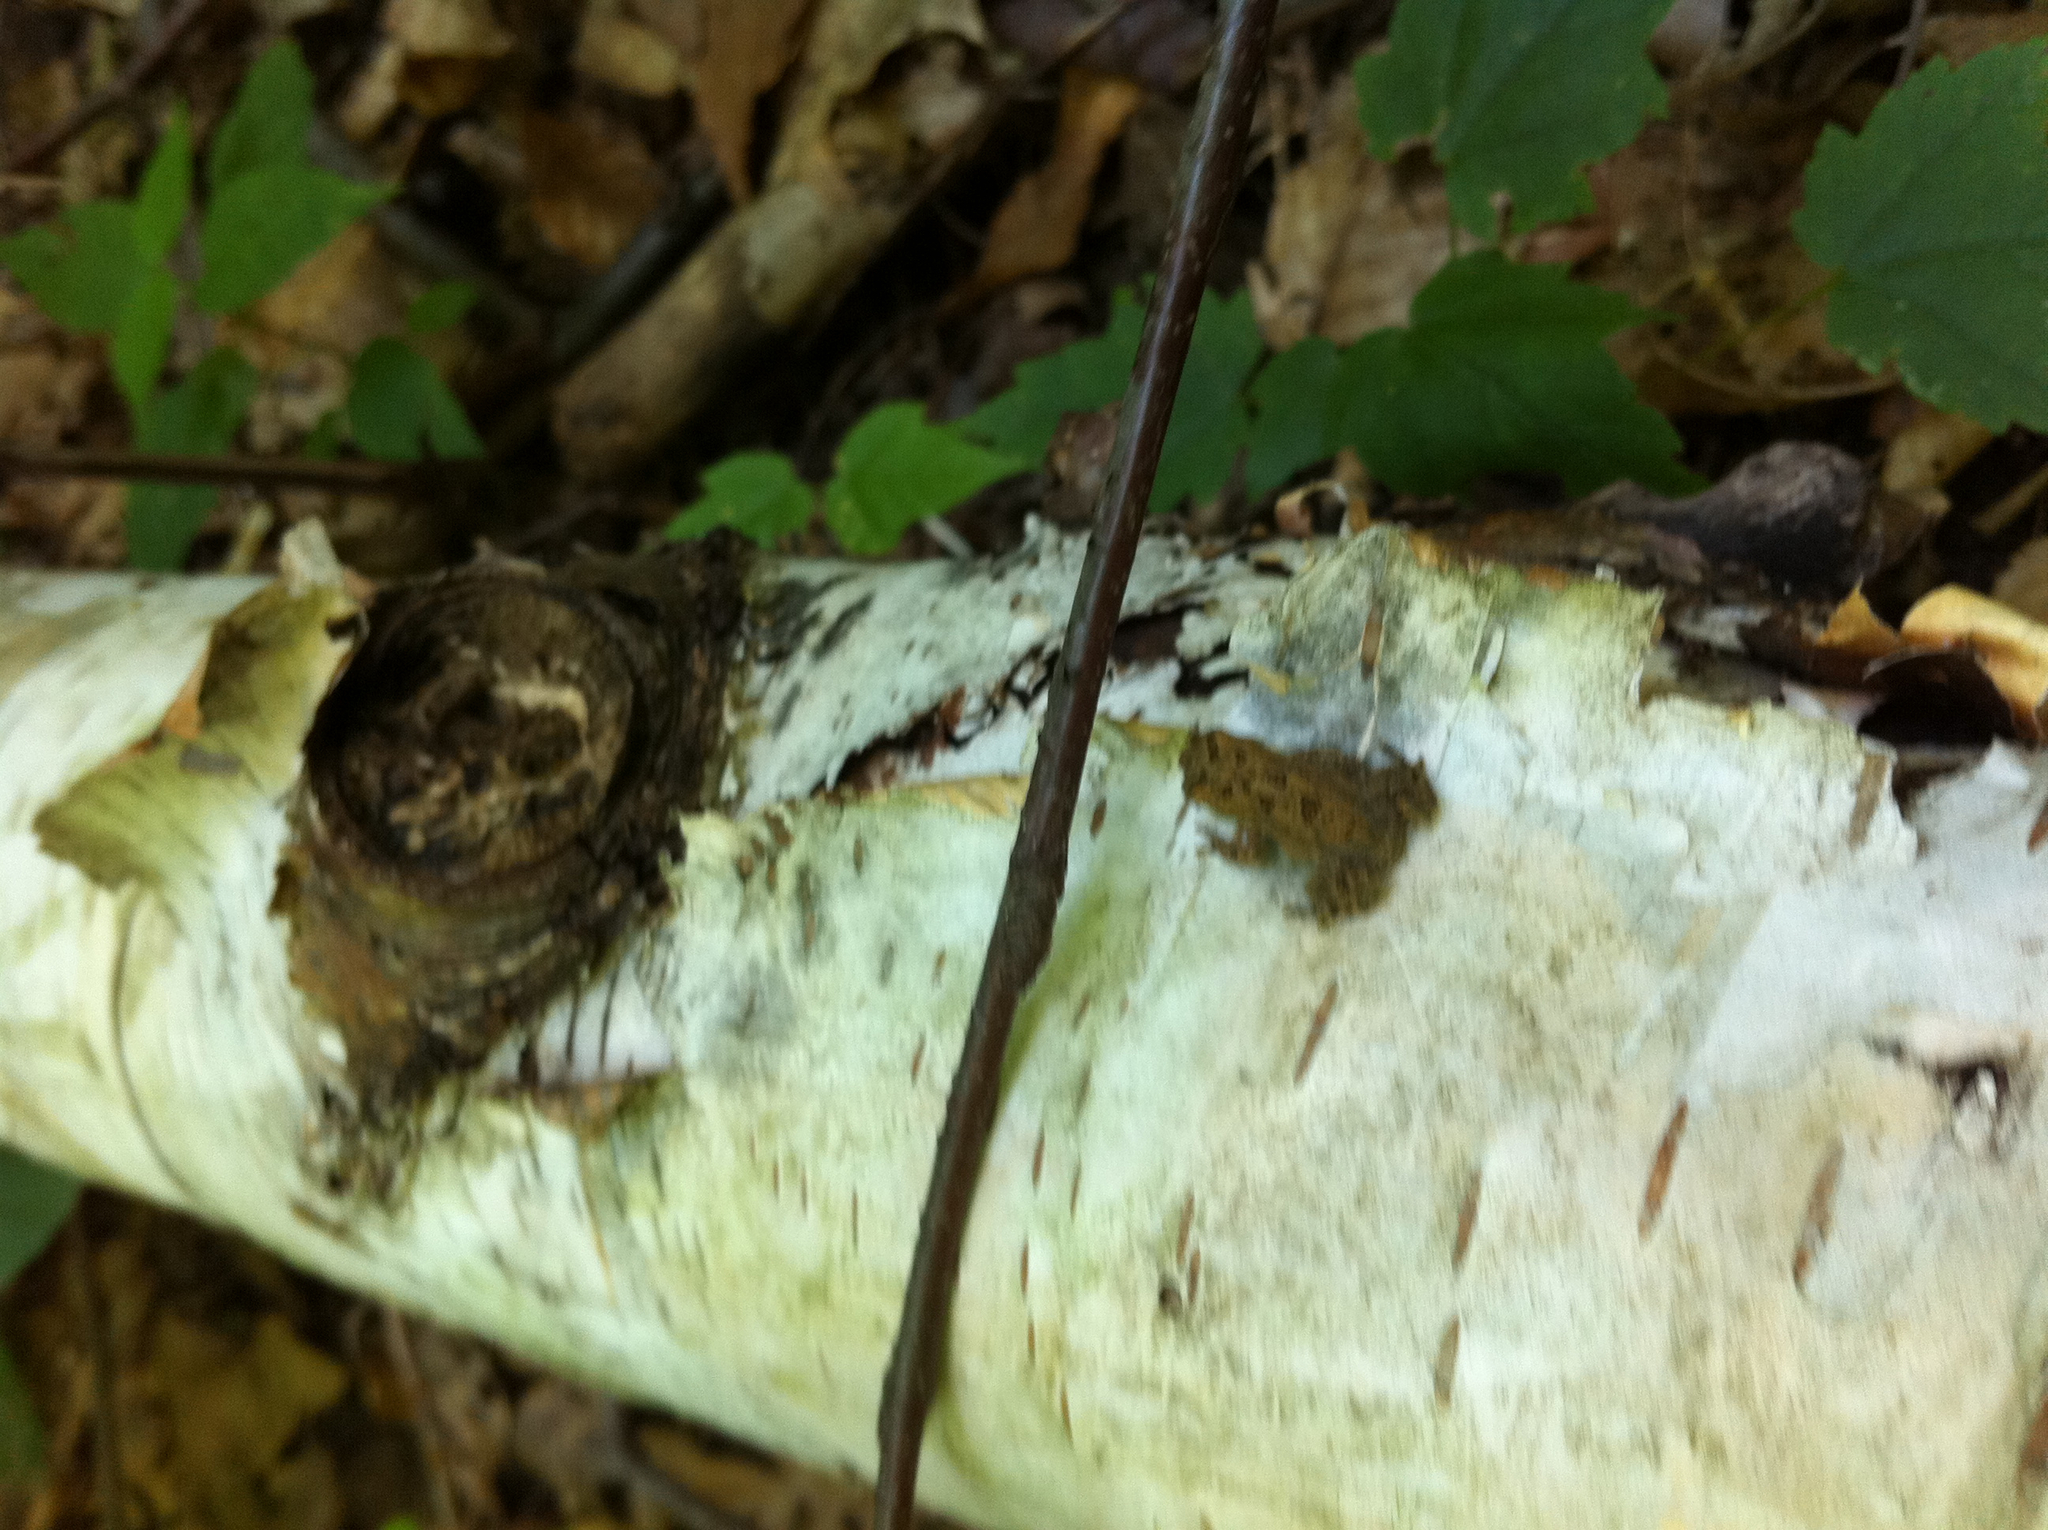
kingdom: Plantae
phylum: Tracheophyta
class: Magnoliopsida
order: Fagales
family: Betulaceae
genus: Betula
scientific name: Betula papyrifera
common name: Paper birch
